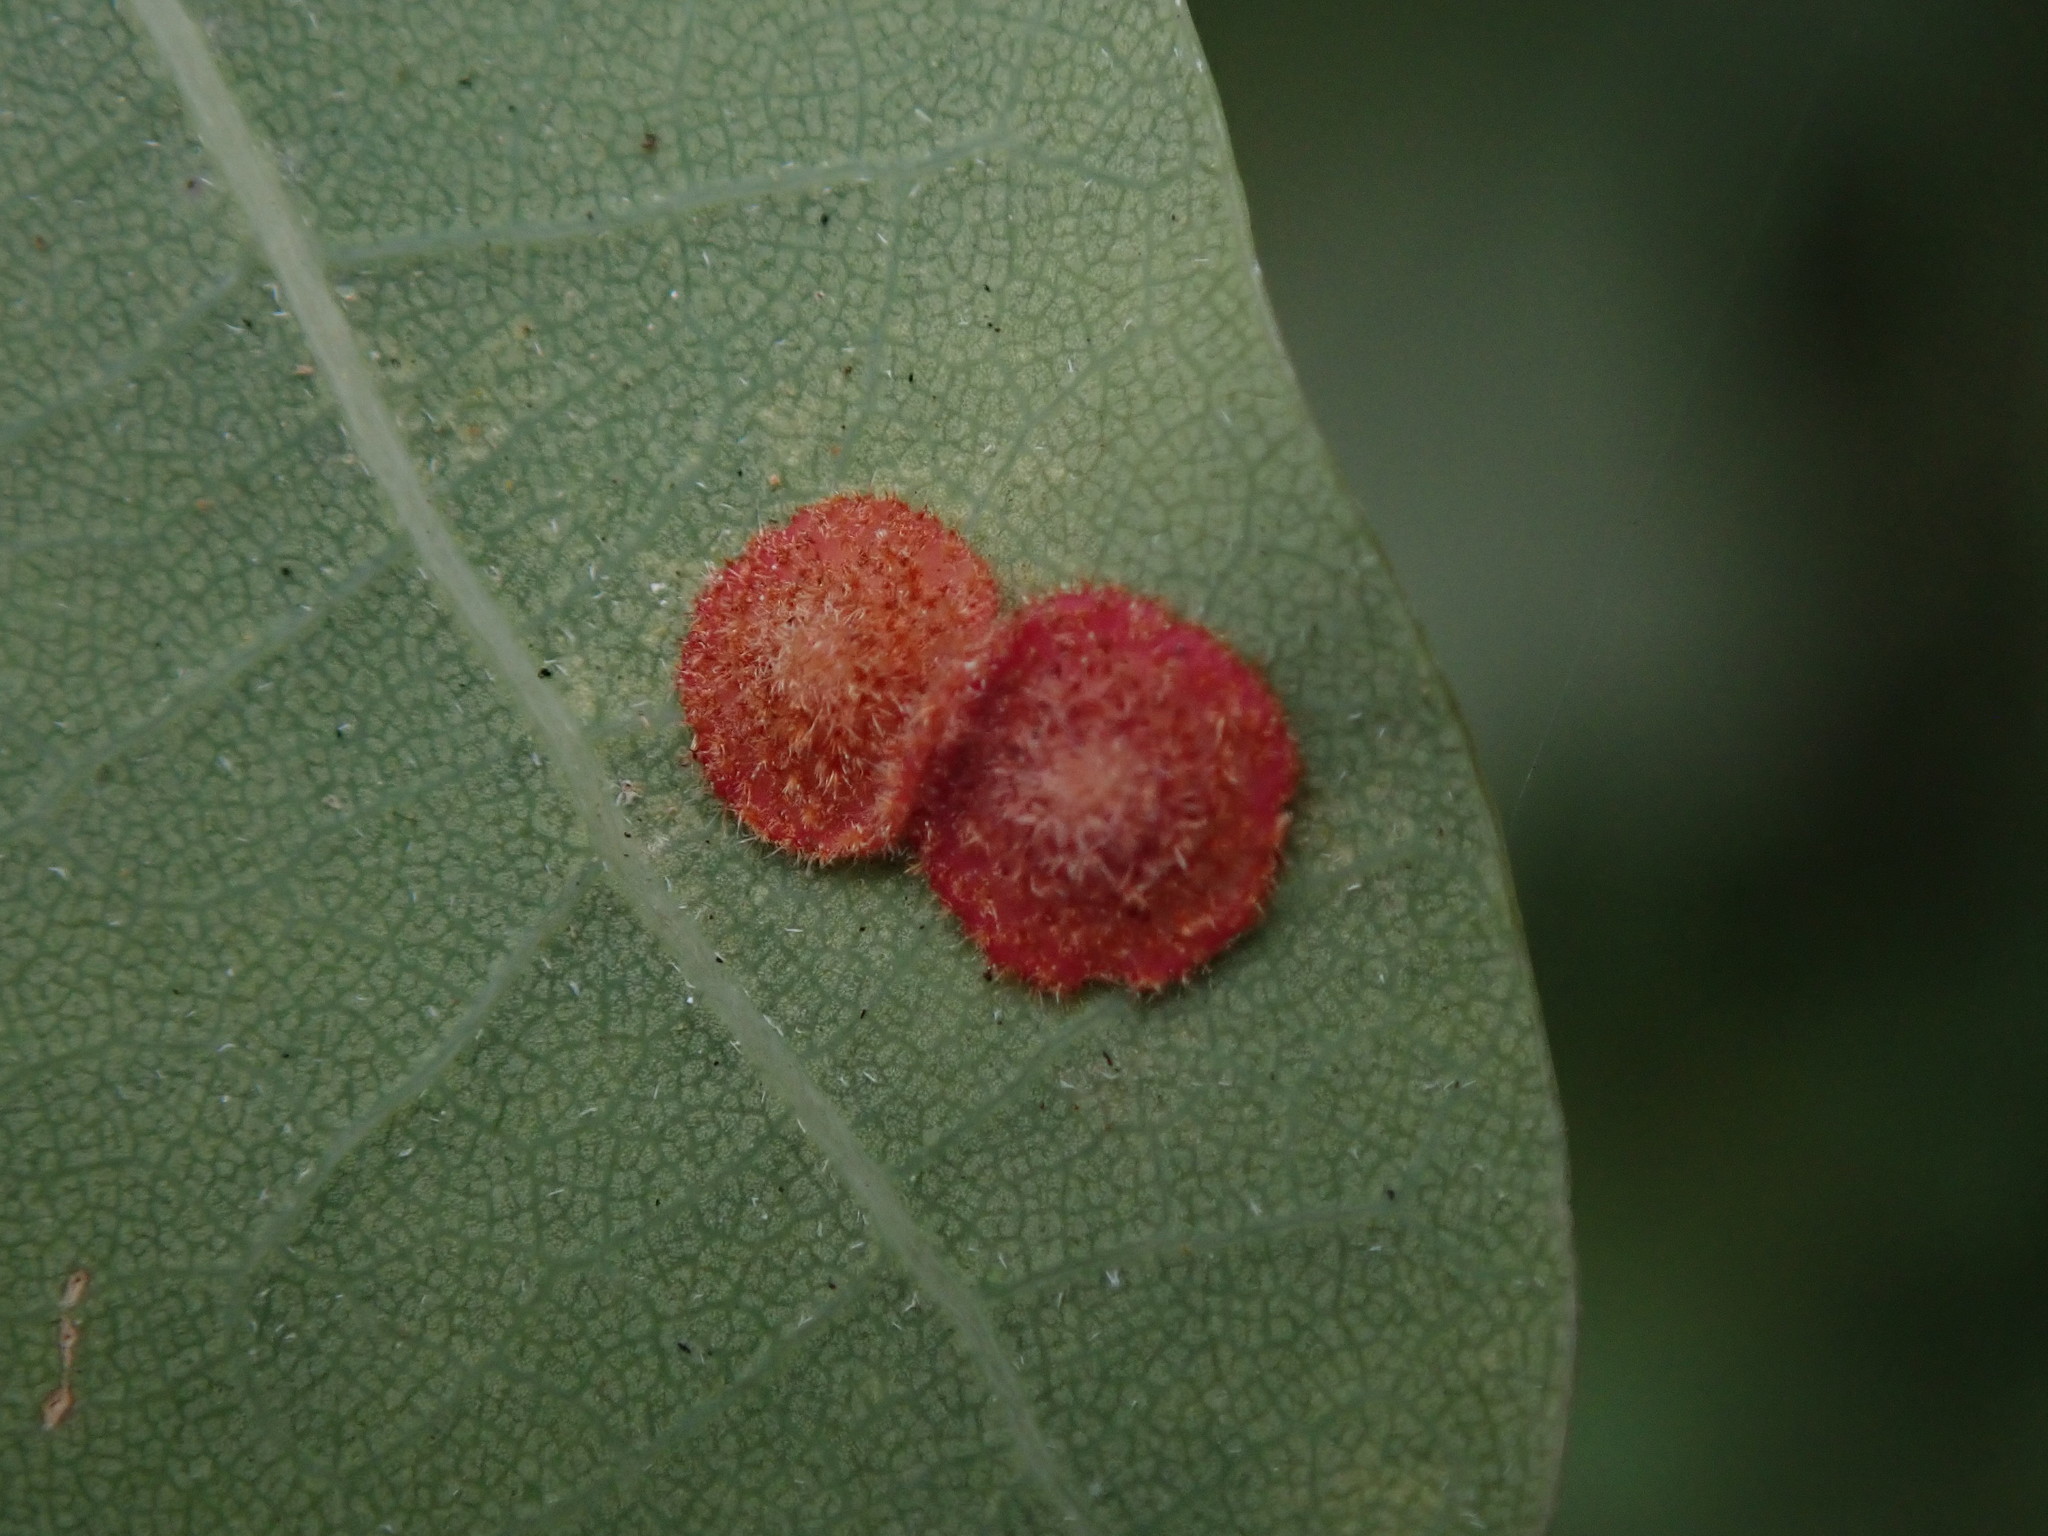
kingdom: Animalia
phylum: Arthropoda
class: Insecta
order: Hymenoptera
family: Cynipidae
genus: Neuroterus
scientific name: Neuroterus quercusbaccarum
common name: Common spangle gall
